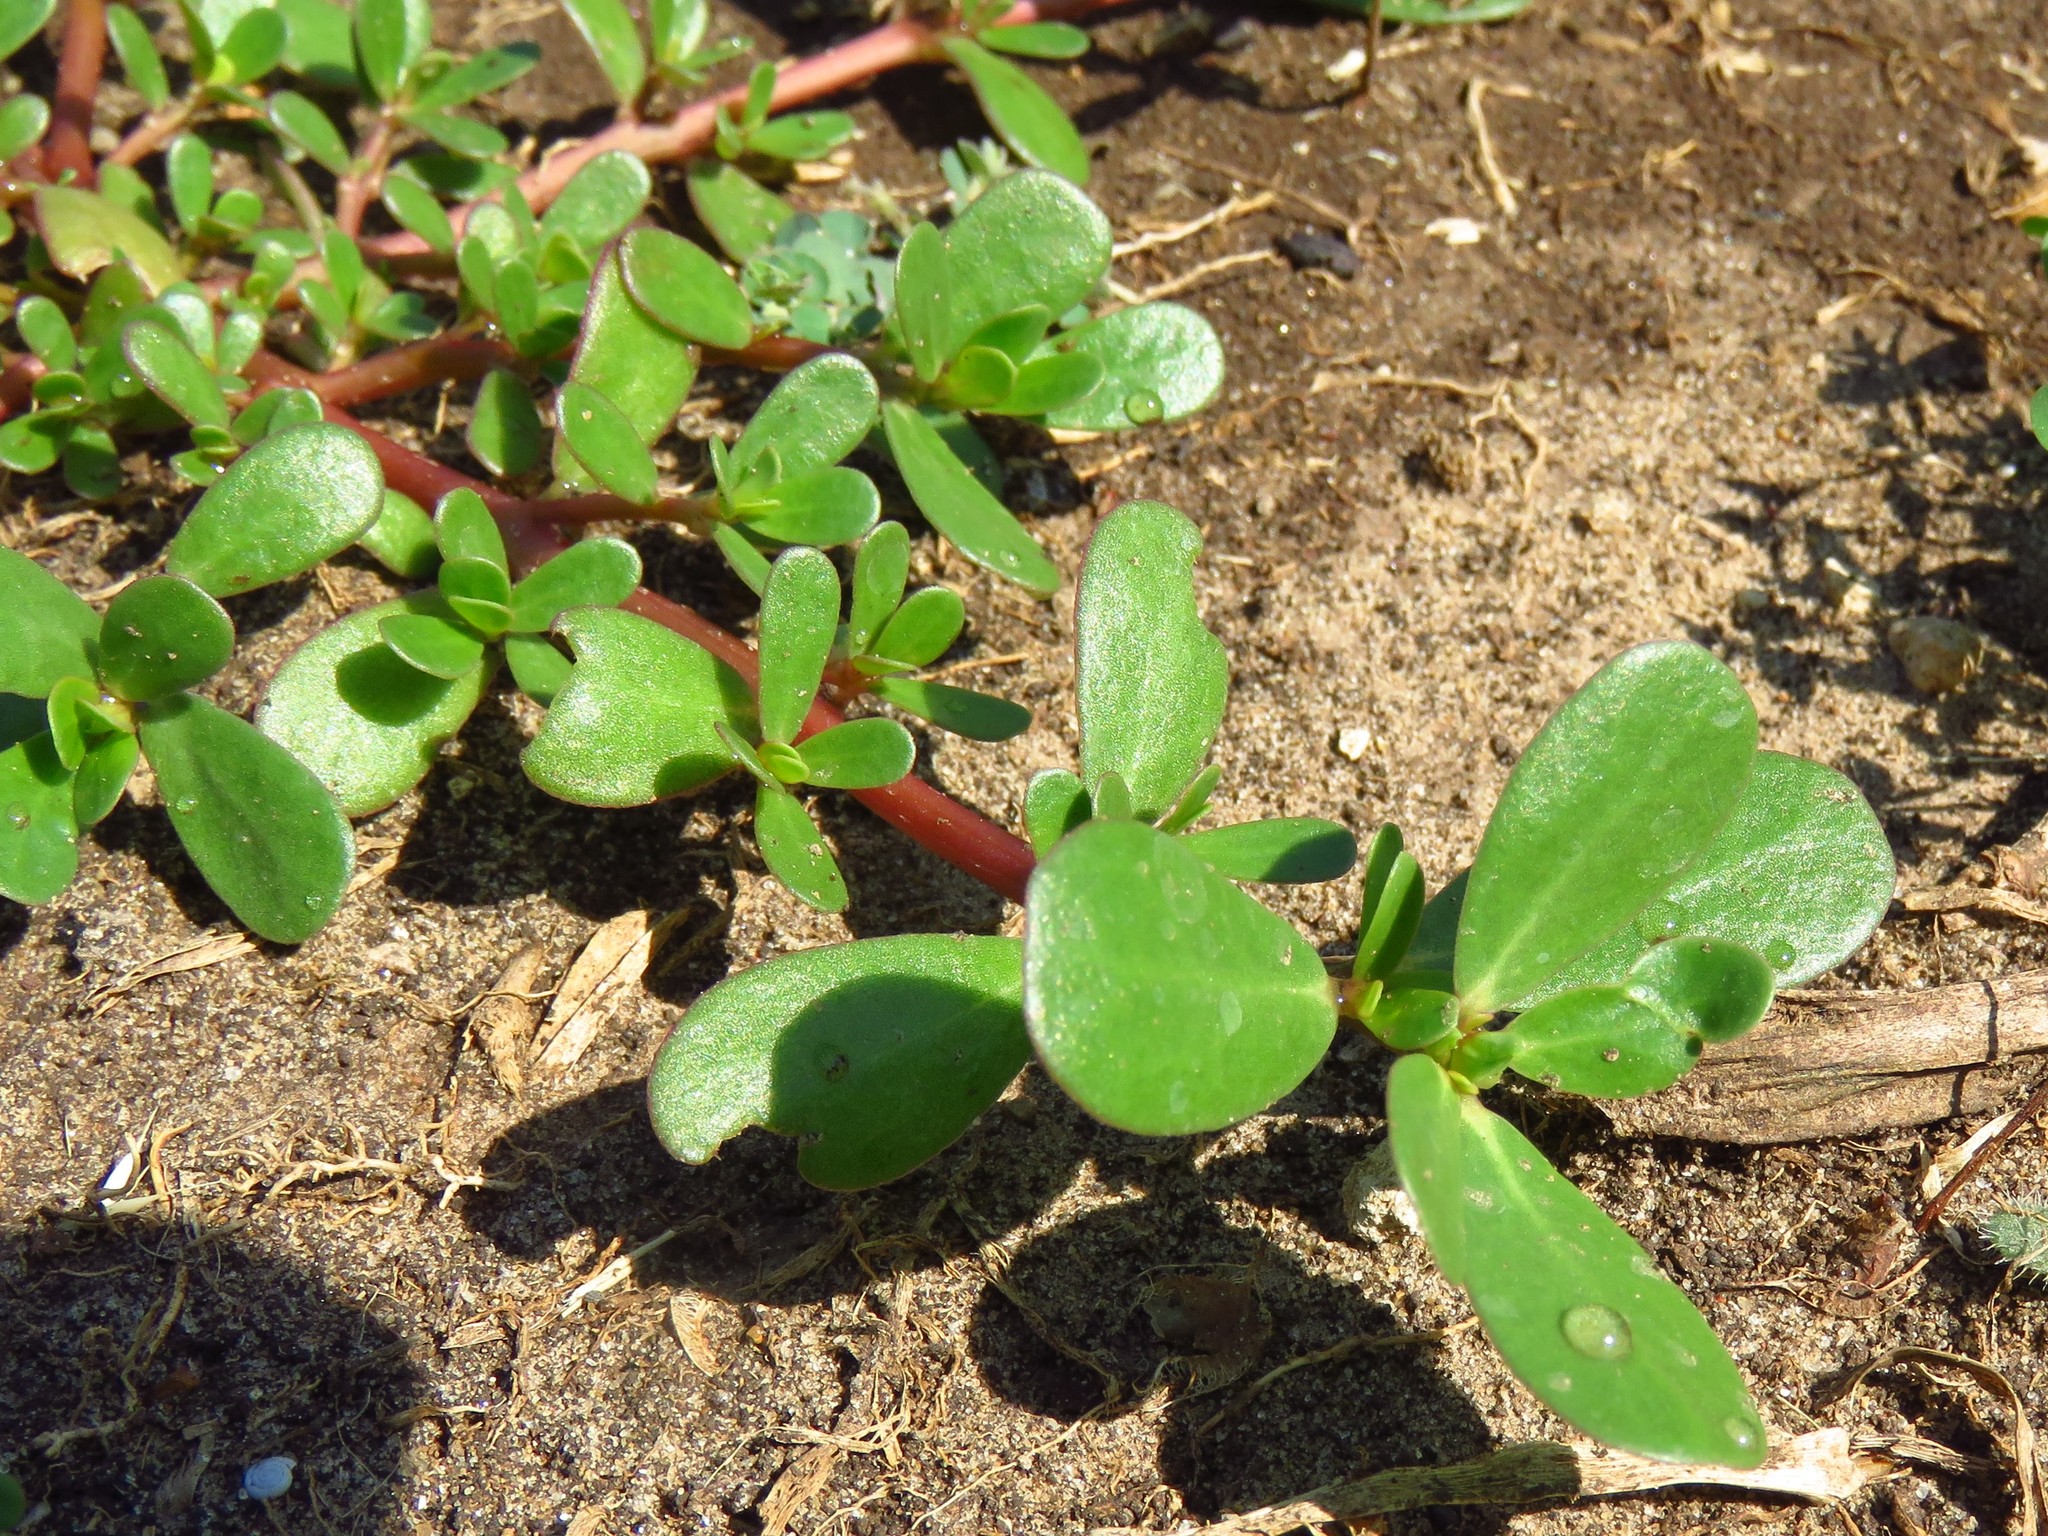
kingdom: Plantae
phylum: Tracheophyta
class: Magnoliopsida
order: Caryophyllales
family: Portulacaceae
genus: Portulaca
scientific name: Portulaca oleracea
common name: Common purslane
